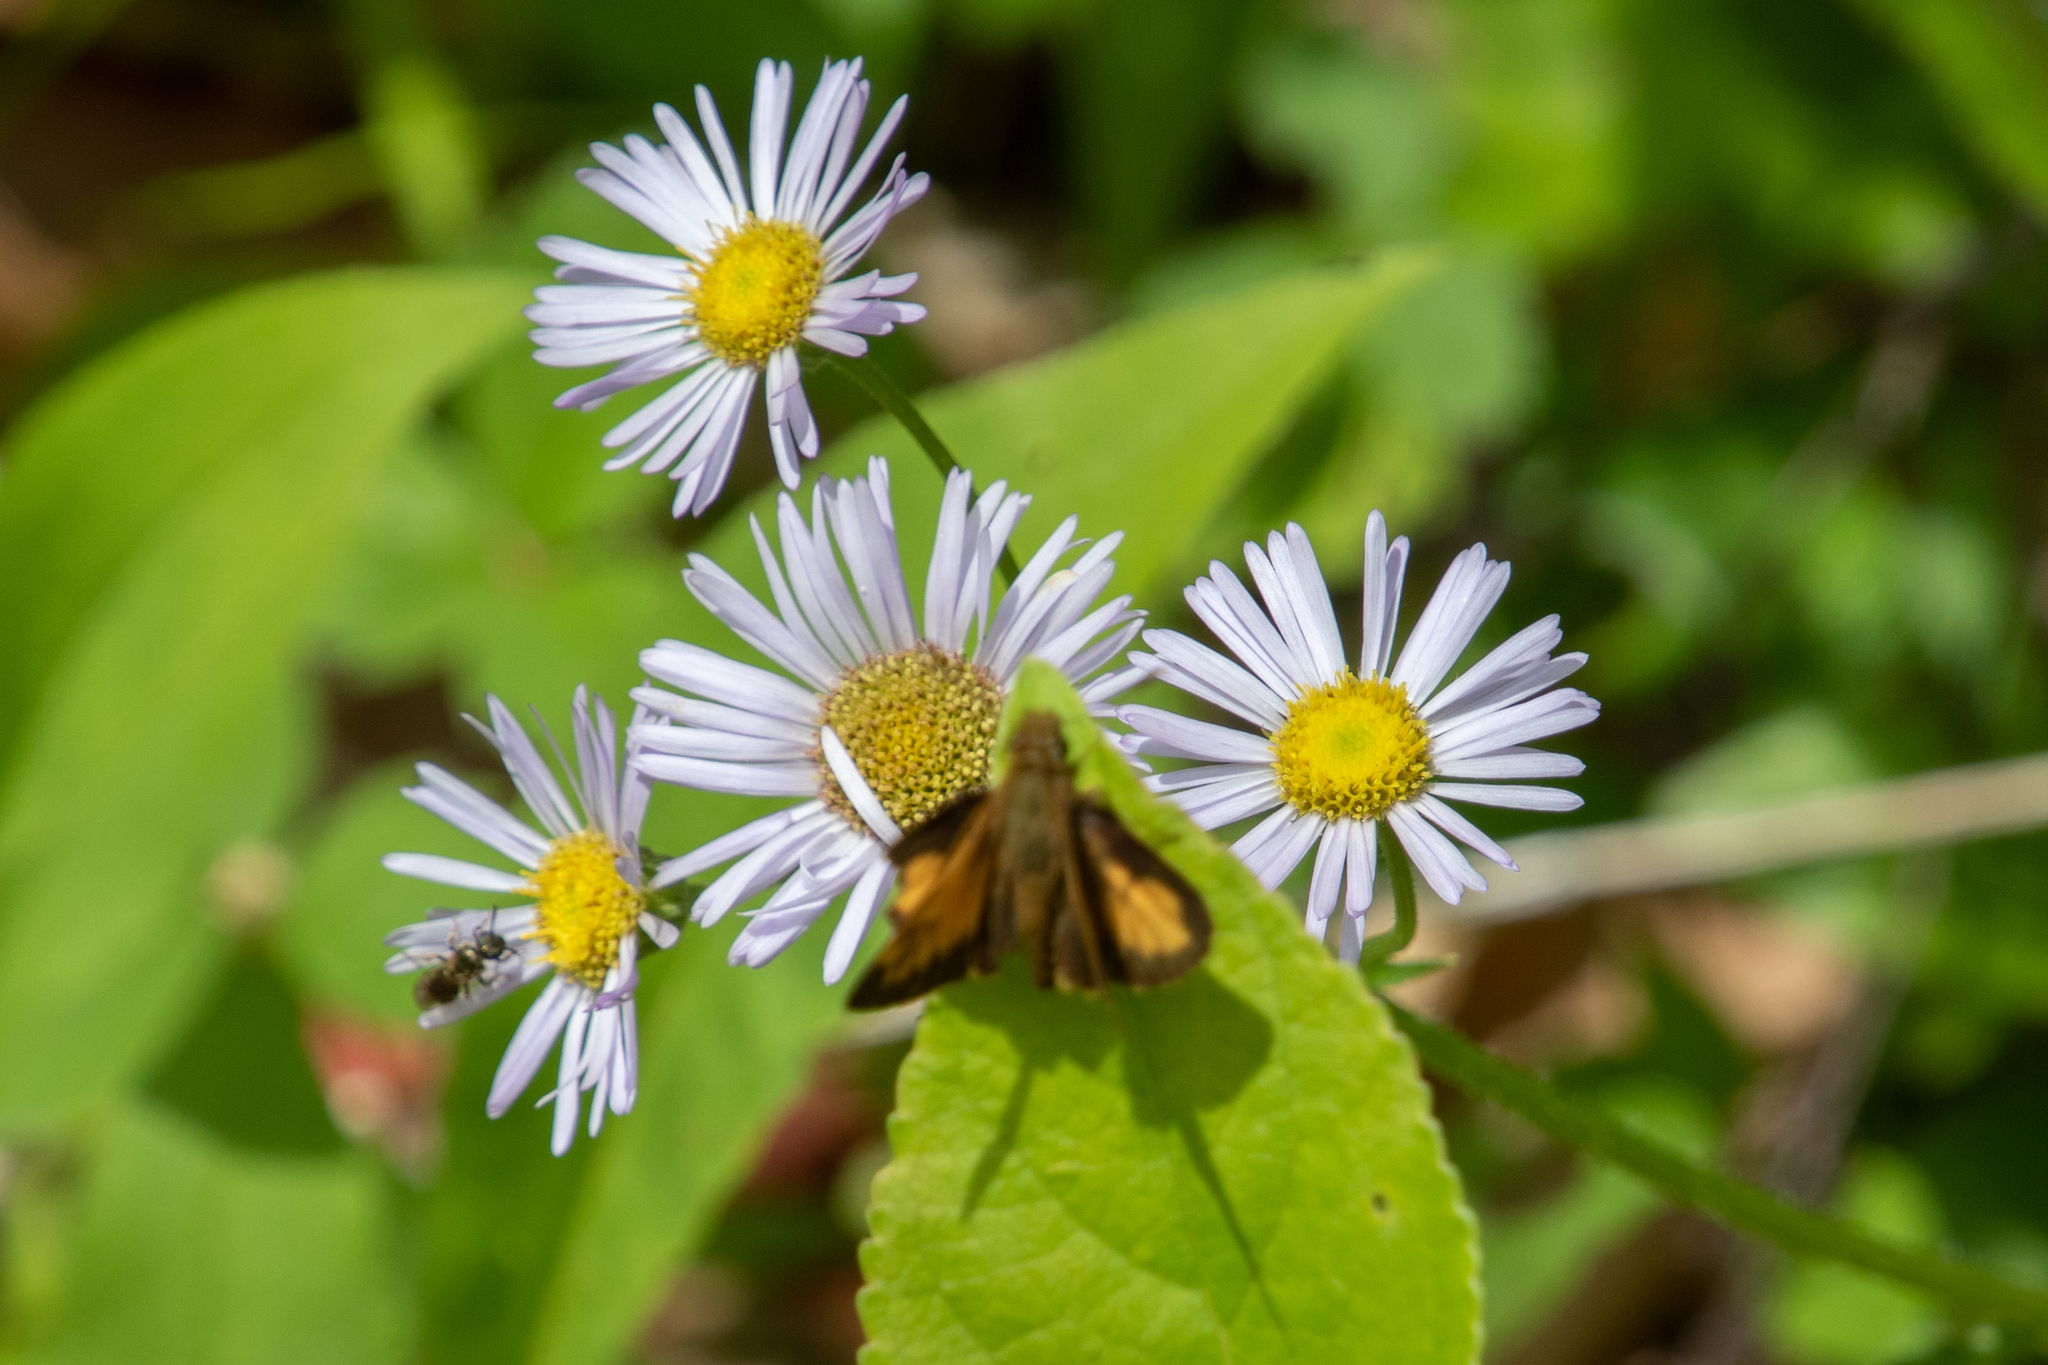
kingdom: Animalia
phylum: Arthropoda
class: Insecta
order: Lepidoptera
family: Hesperiidae
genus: Lon
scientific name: Lon hobomok
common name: Hobomok skipper
